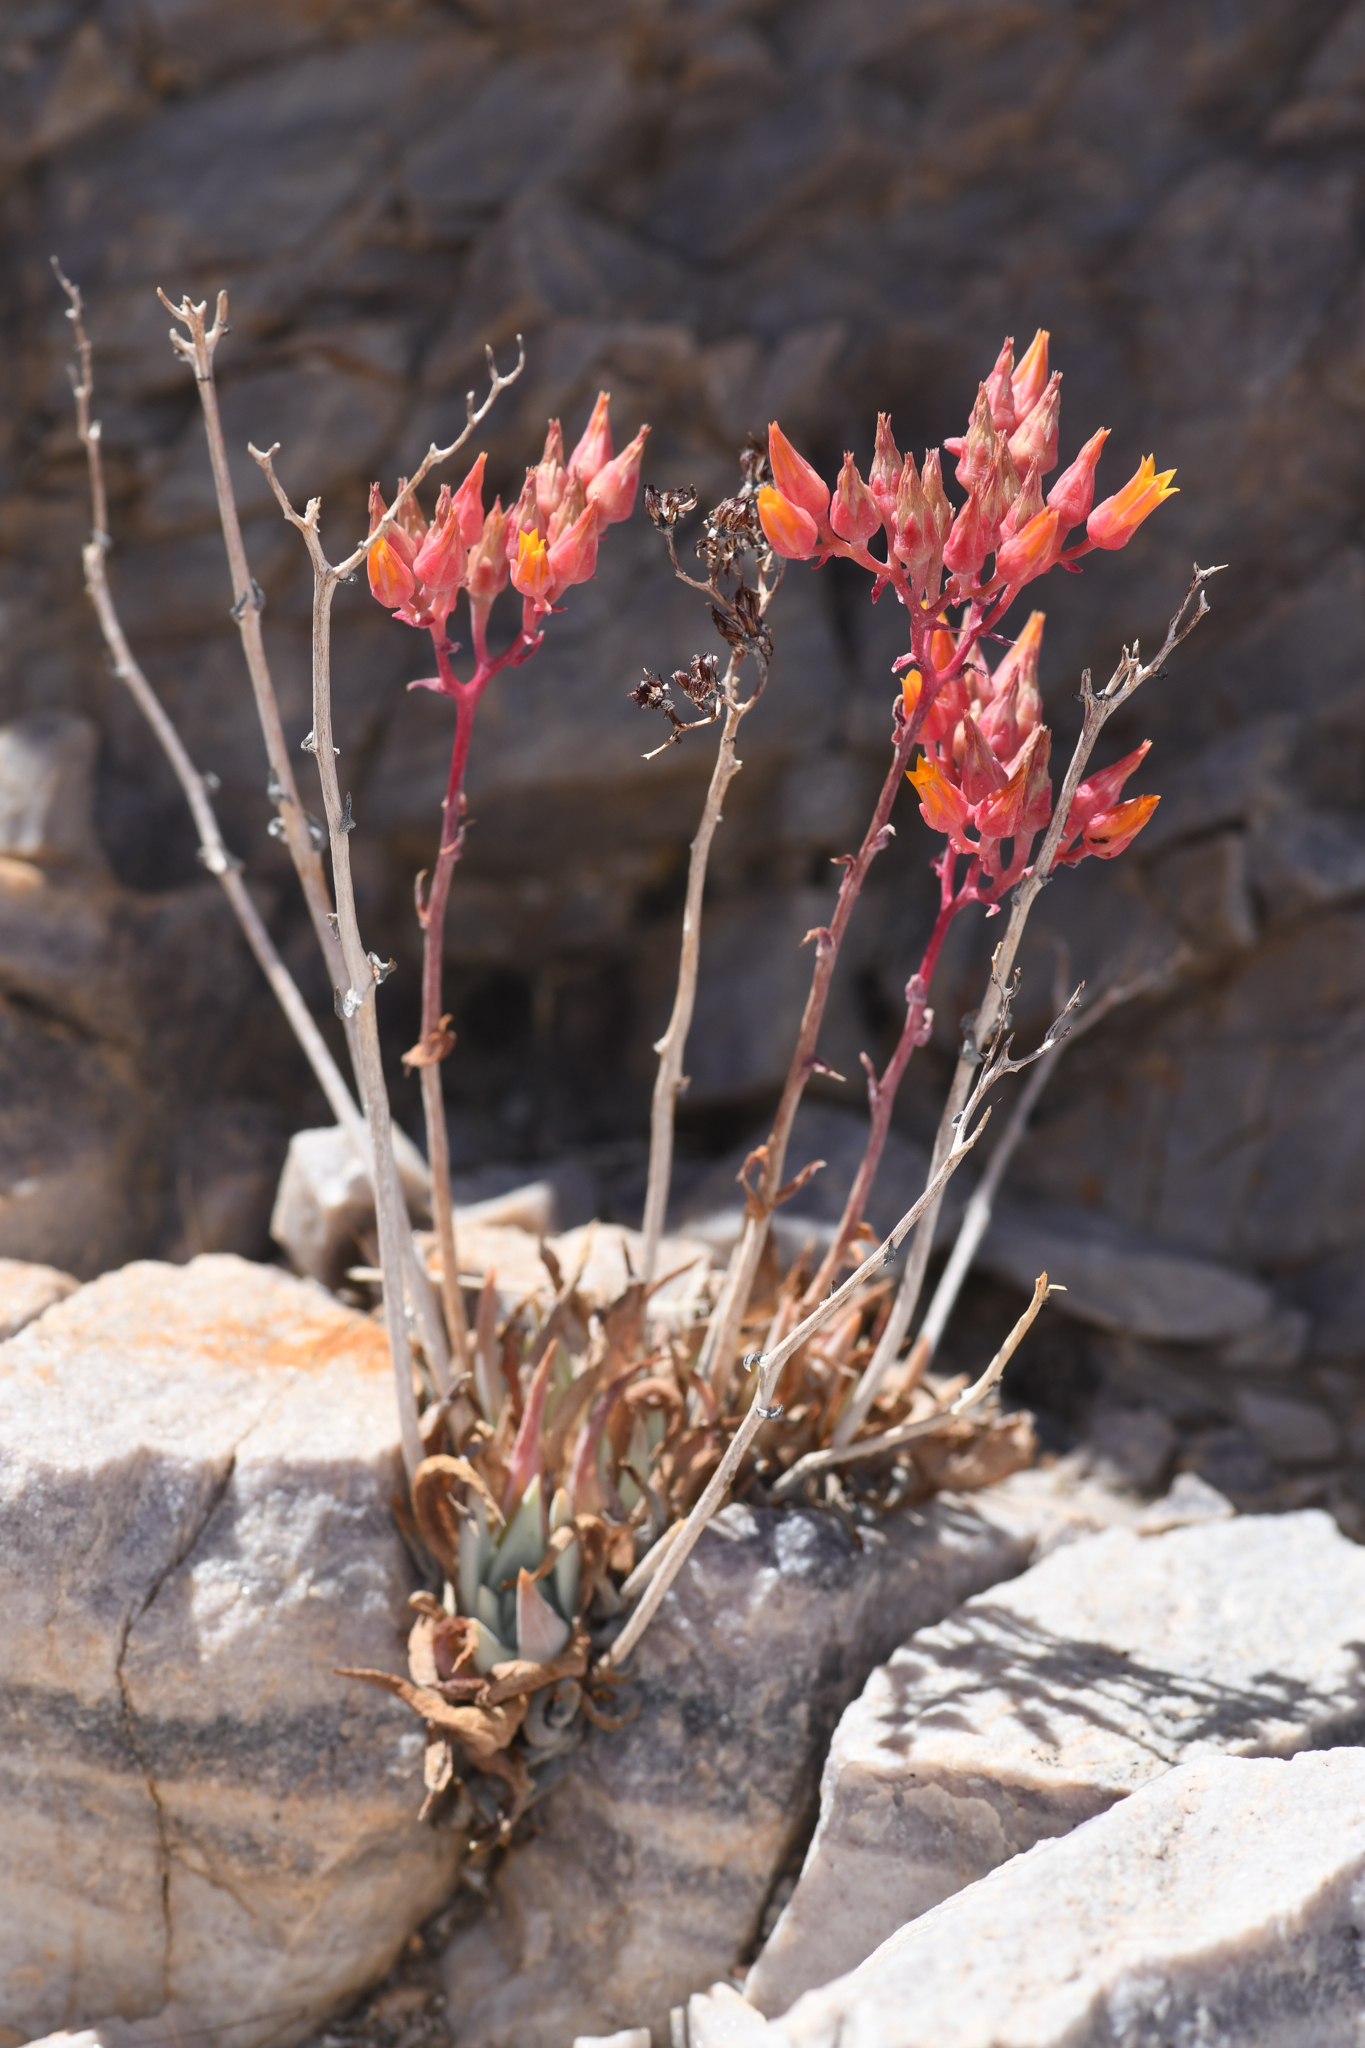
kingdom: Plantae
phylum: Tracheophyta
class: Magnoliopsida
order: Saxifragales
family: Crassulaceae
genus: Dudleya
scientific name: Dudleya saxosa
